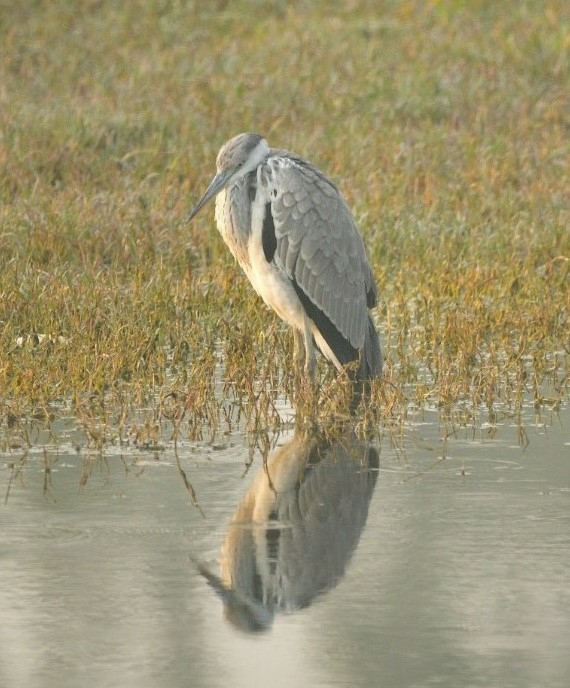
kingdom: Animalia
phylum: Chordata
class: Aves
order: Pelecaniformes
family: Ardeidae
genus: Ardea
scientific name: Ardea cinerea
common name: Grey heron
